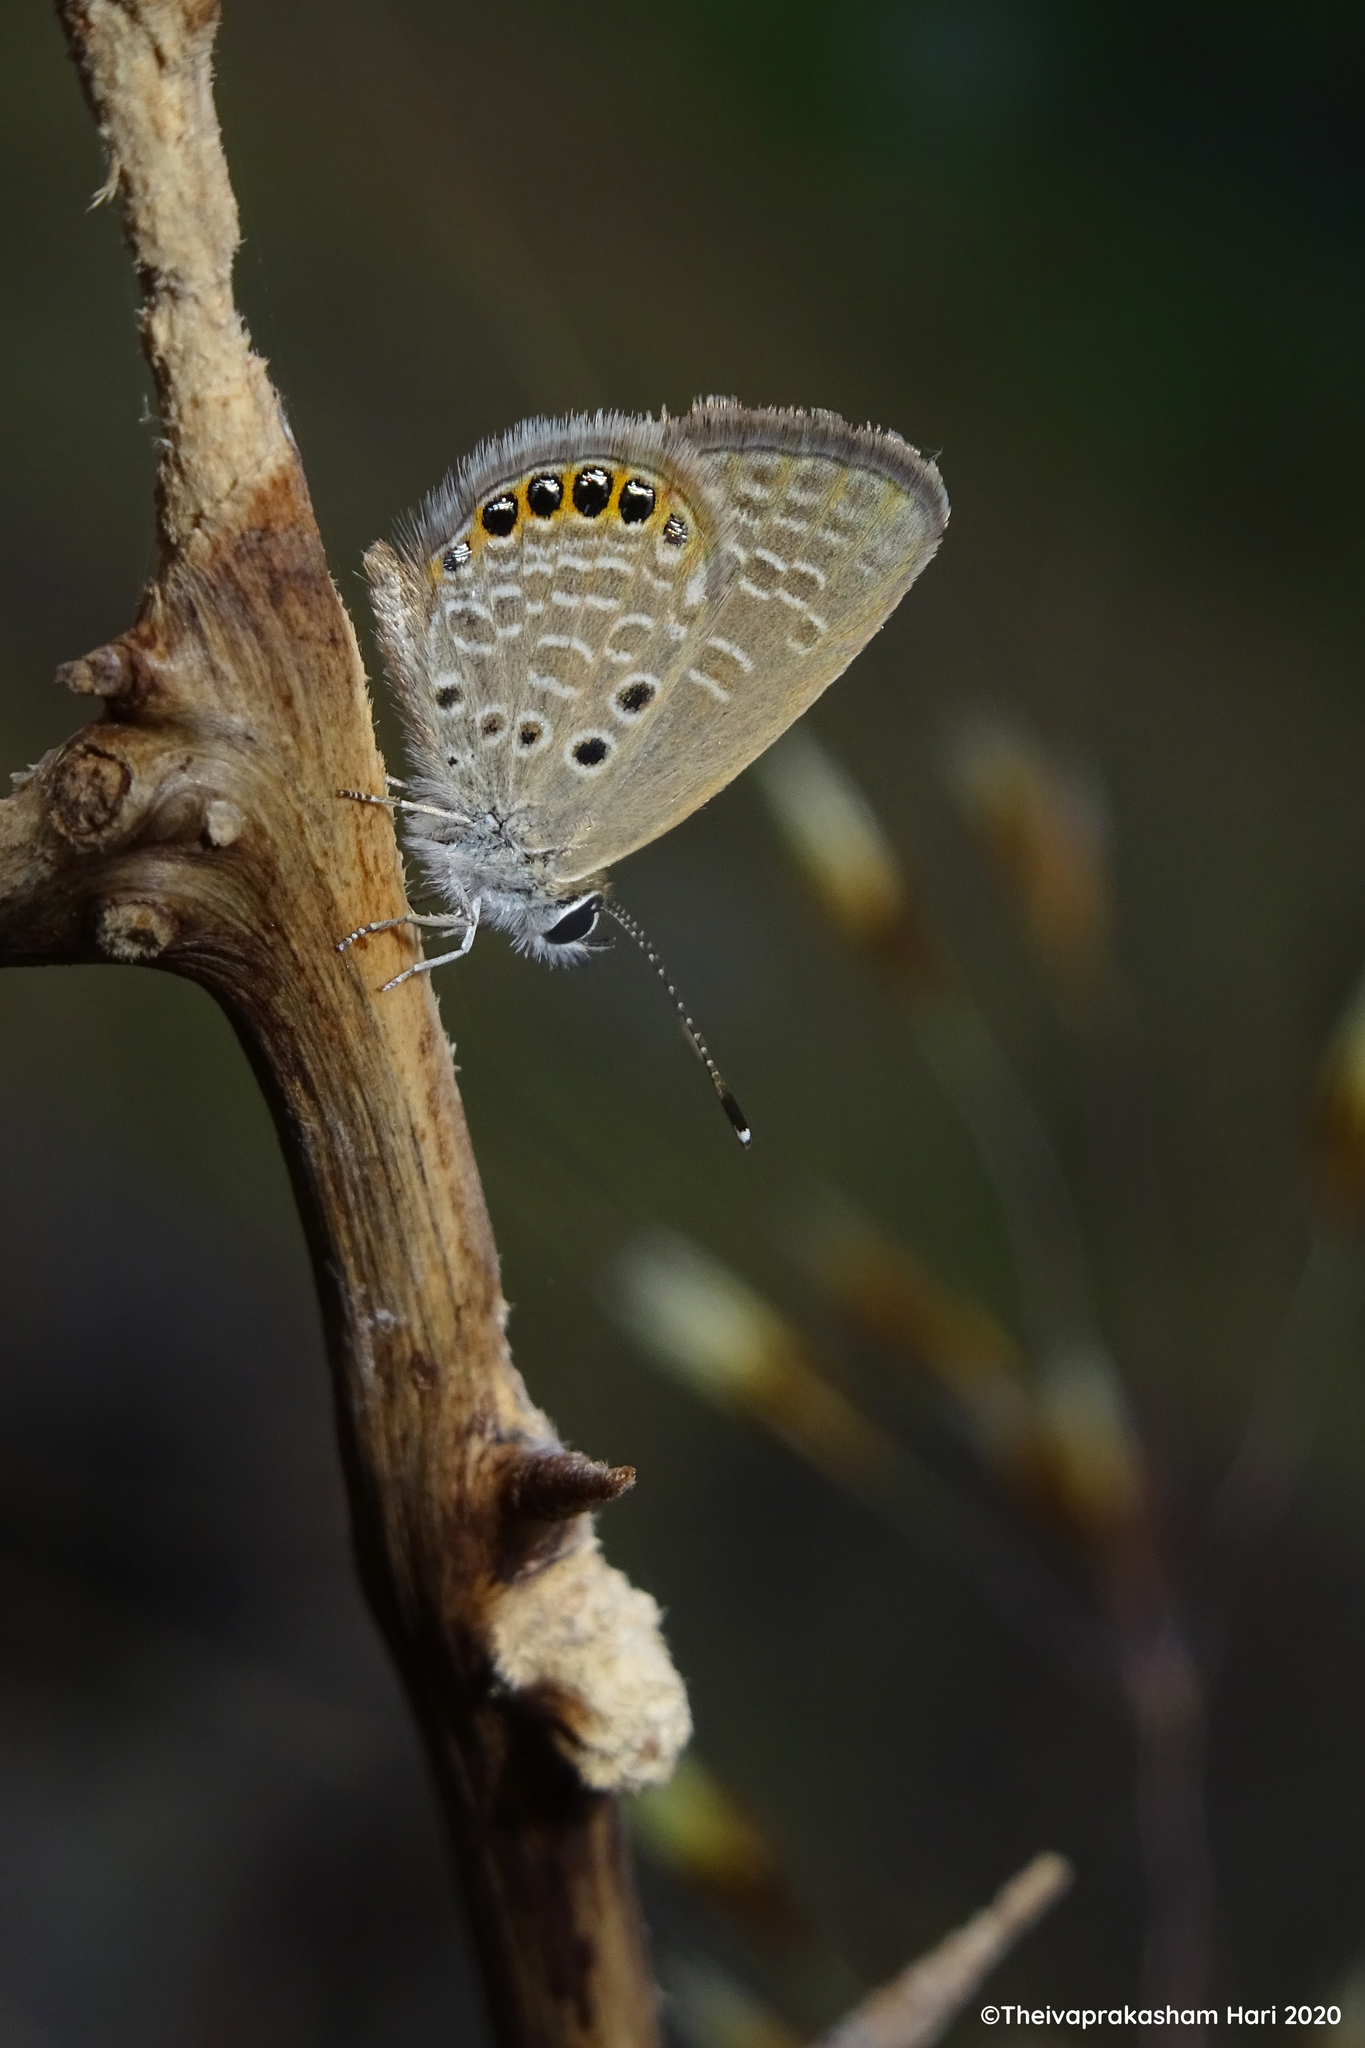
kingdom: Animalia
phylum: Arthropoda
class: Insecta
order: Lepidoptera
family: Lycaenidae
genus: Freyeria
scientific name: Freyeria putli
